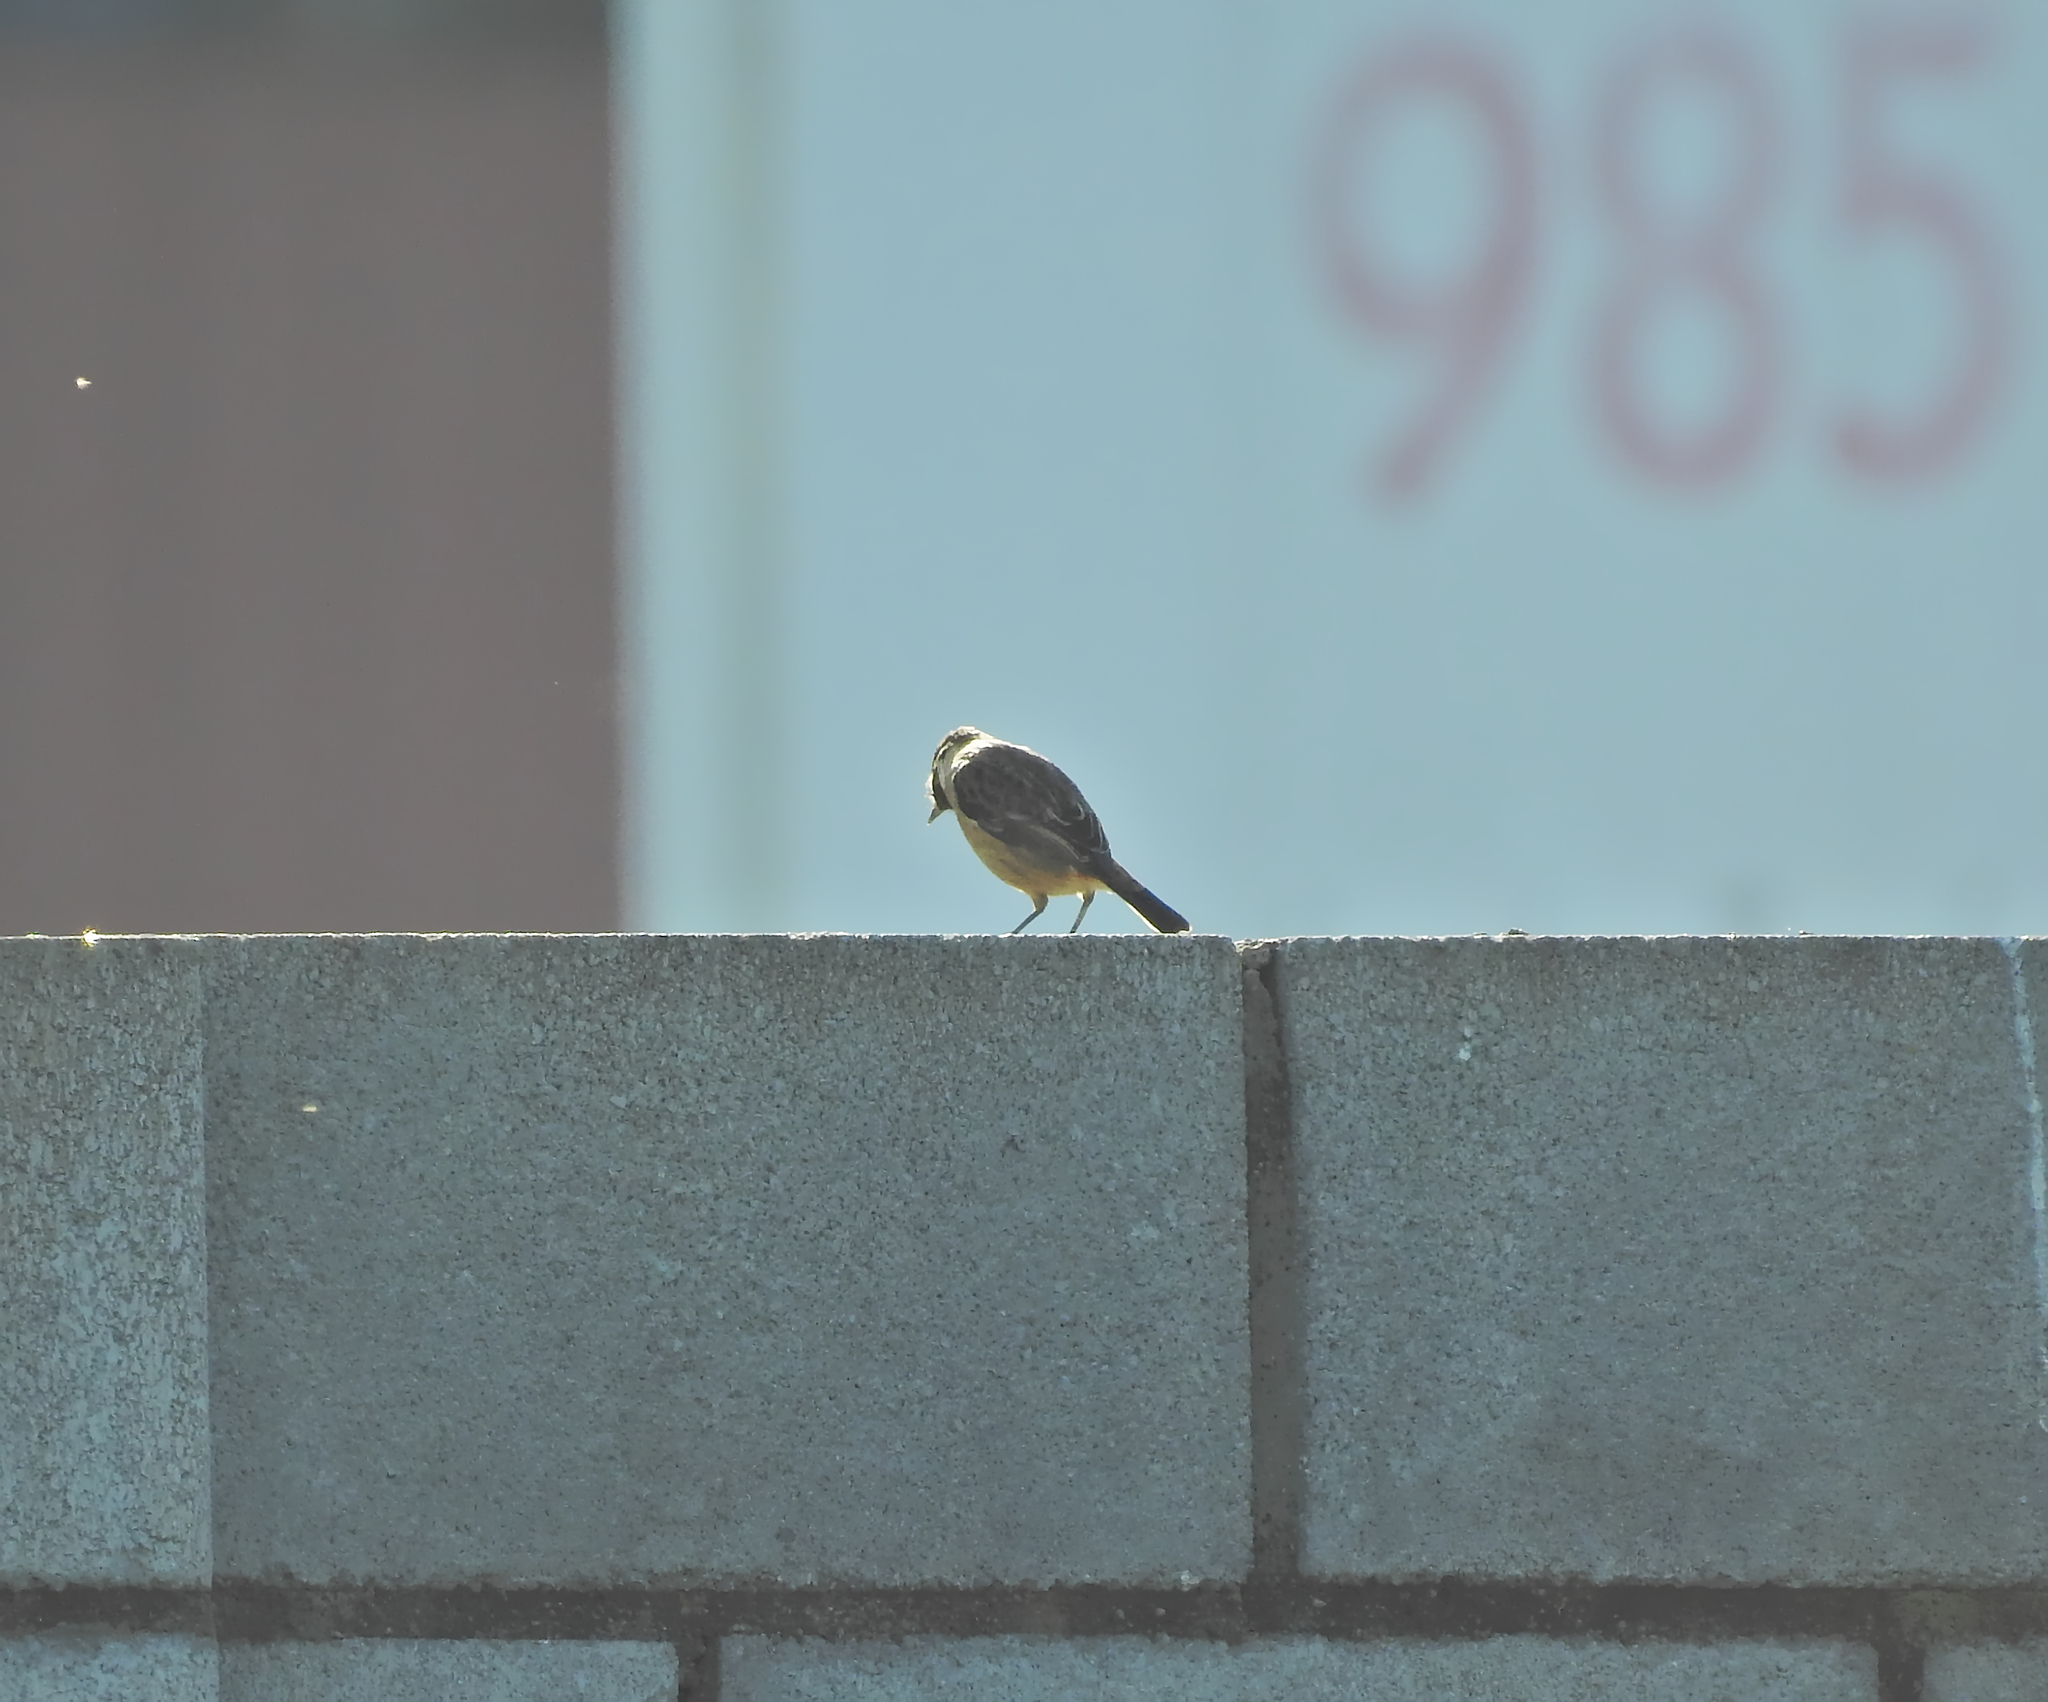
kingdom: Animalia
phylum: Chordata
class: Aves
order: Passeriformes
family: Muscicapidae
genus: Saxicola
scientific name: Saxicola rubicola
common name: European stonechat
